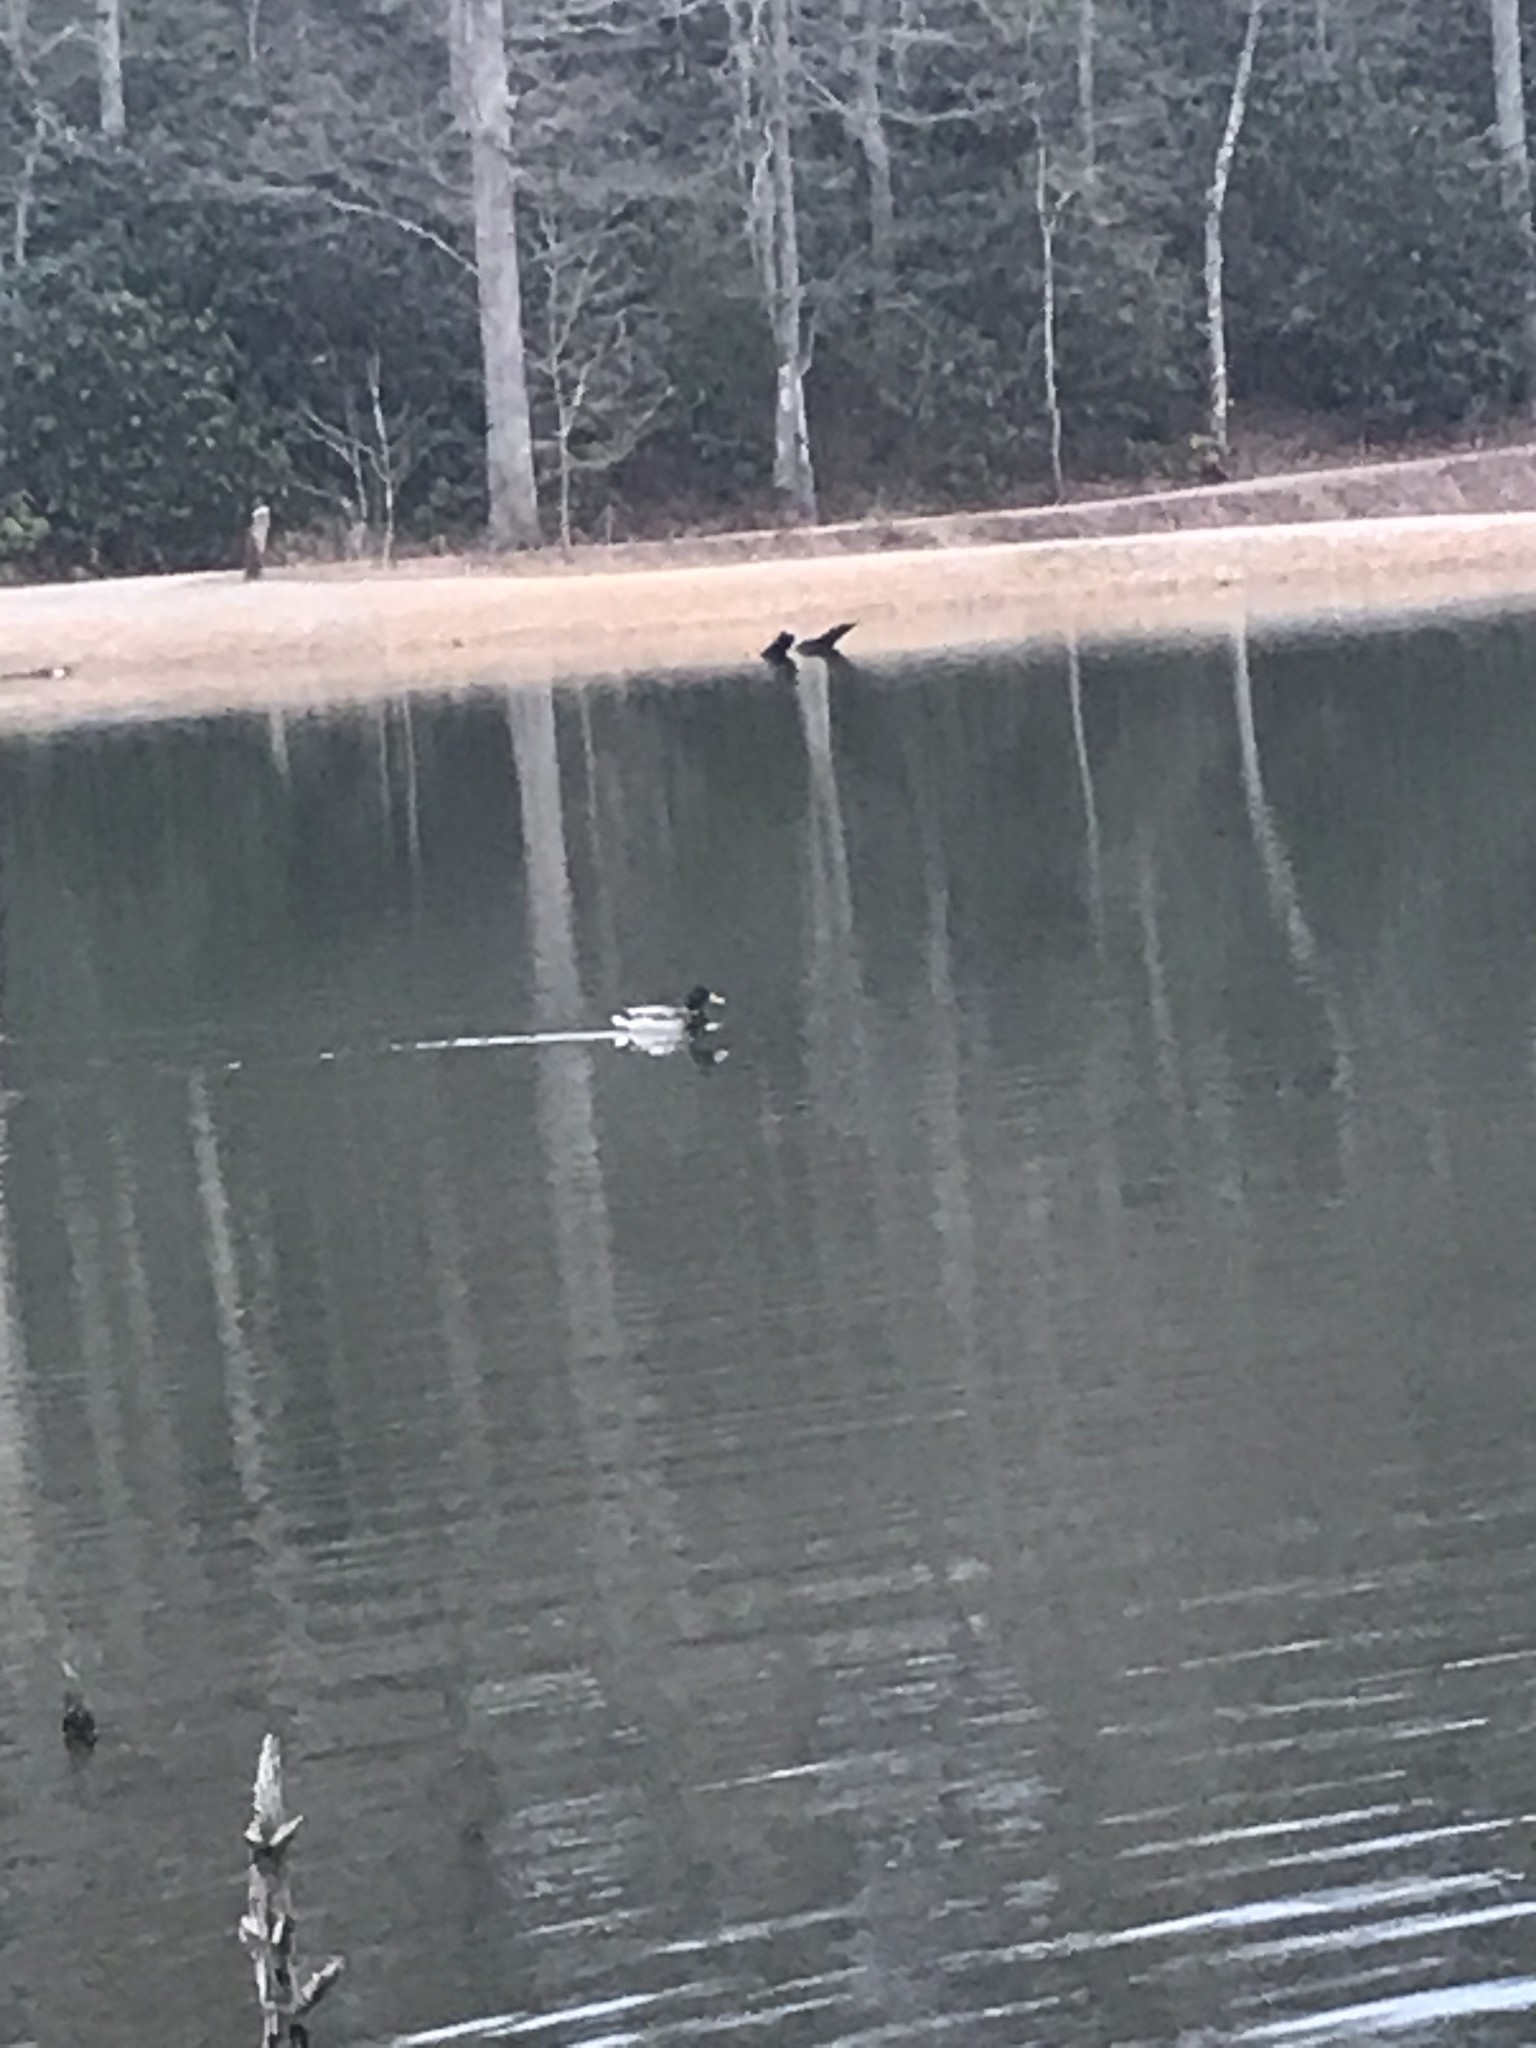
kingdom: Animalia
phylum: Chordata
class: Aves
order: Anseriformes
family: Anatidae
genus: Anas
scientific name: Anas platyrhynchos
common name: Mallard
